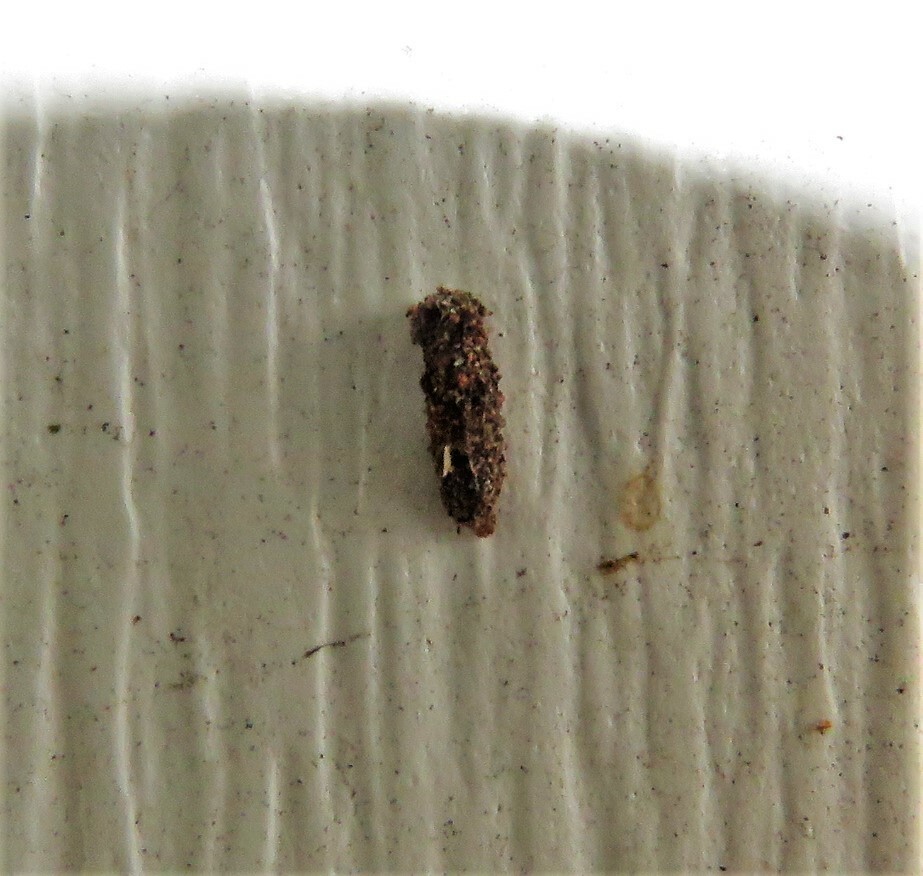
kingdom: Animalia
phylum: Arthropoda
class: Insecta
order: Lepidoptera
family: Psychidae
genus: Dahlica
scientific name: Dahlica triquetrella
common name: Narrow lichen case-bearer
